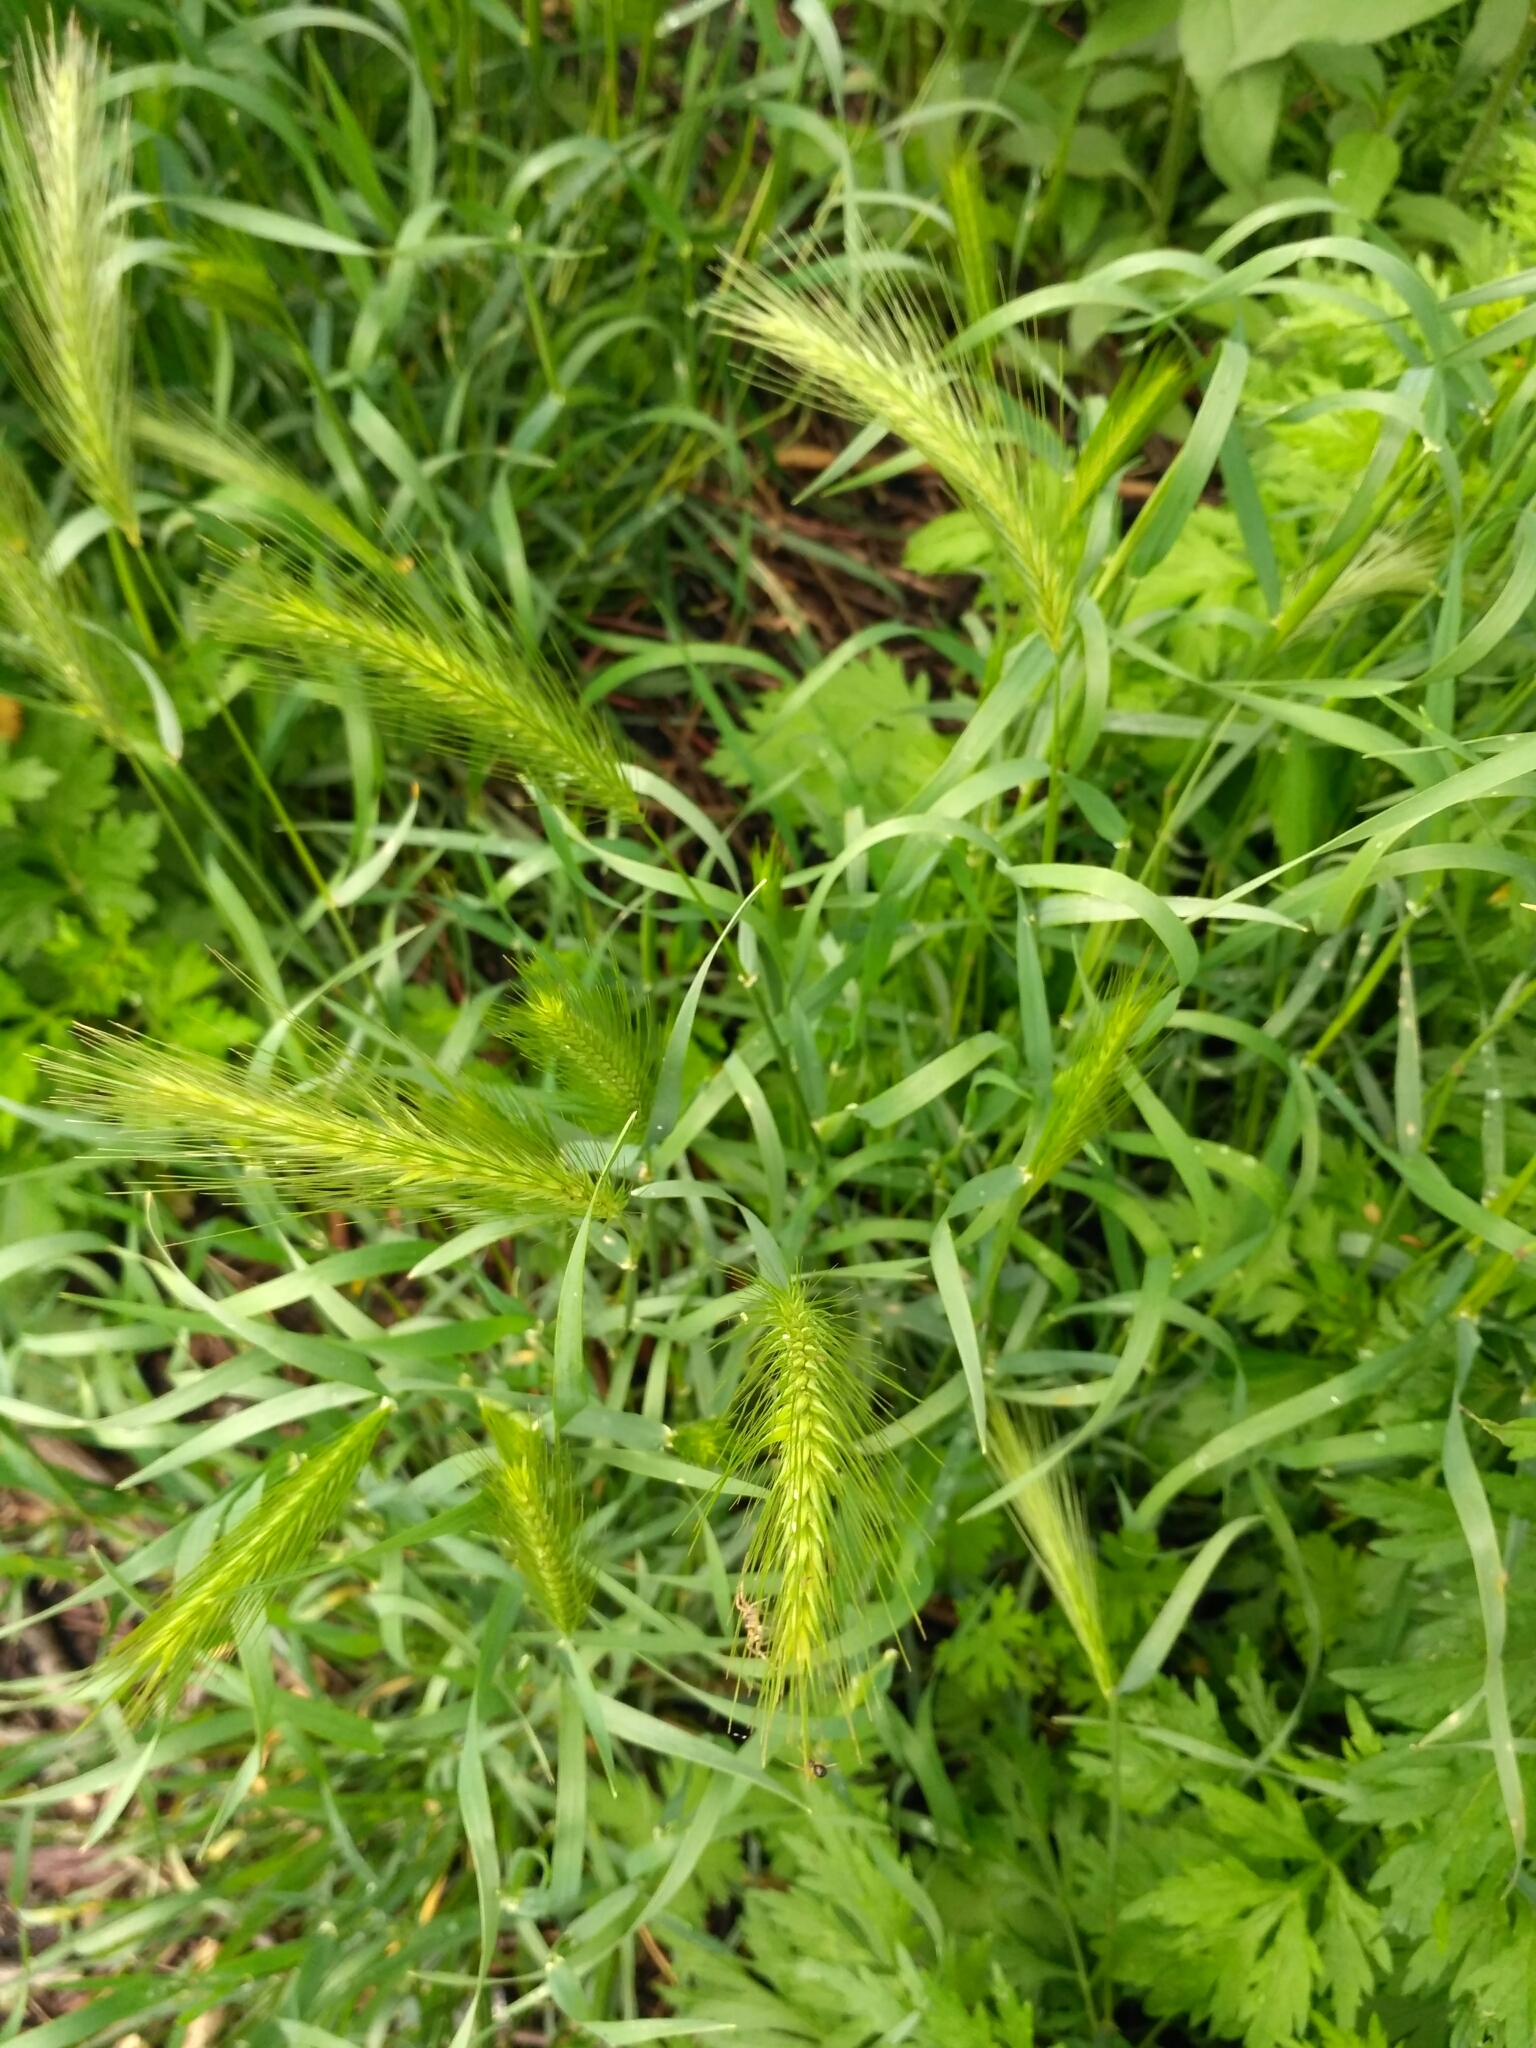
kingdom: Plantae
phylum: Tracheophyta
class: Liliopsida
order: Poales
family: Poaceae
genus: Hordeum
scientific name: Hordeum murinum
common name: Wall barley
